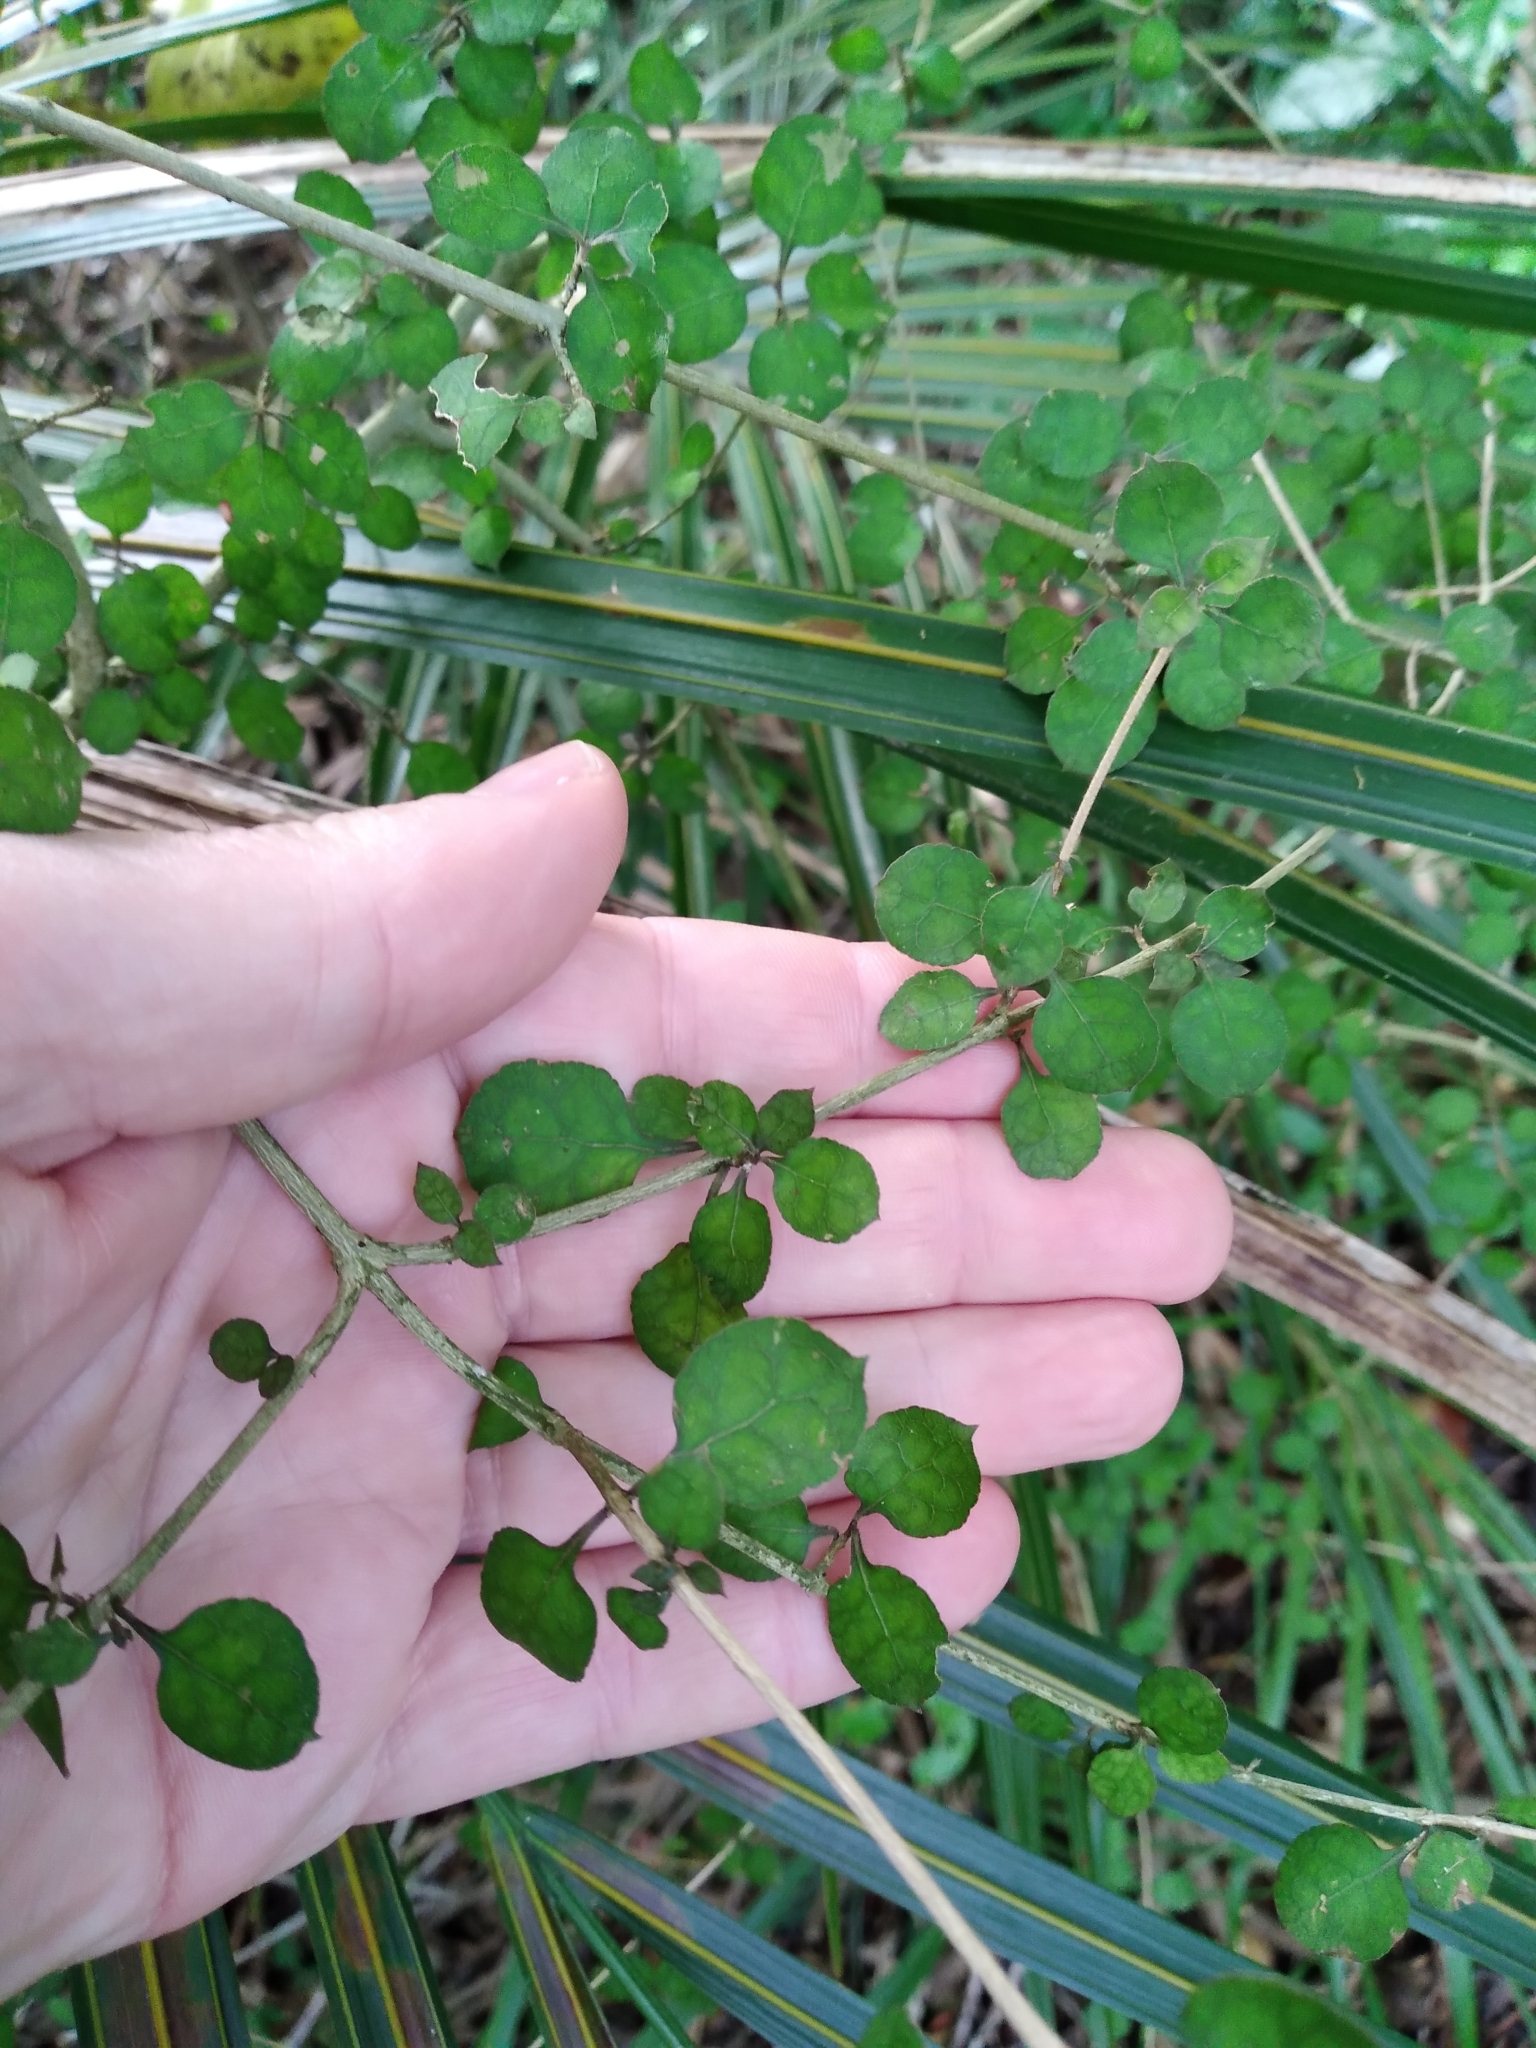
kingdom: Plantae
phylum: Tracheophyta
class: Magnoliopsida
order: Gentianales
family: Rubiaceae
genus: Coprosma
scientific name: Coprosma areolata
